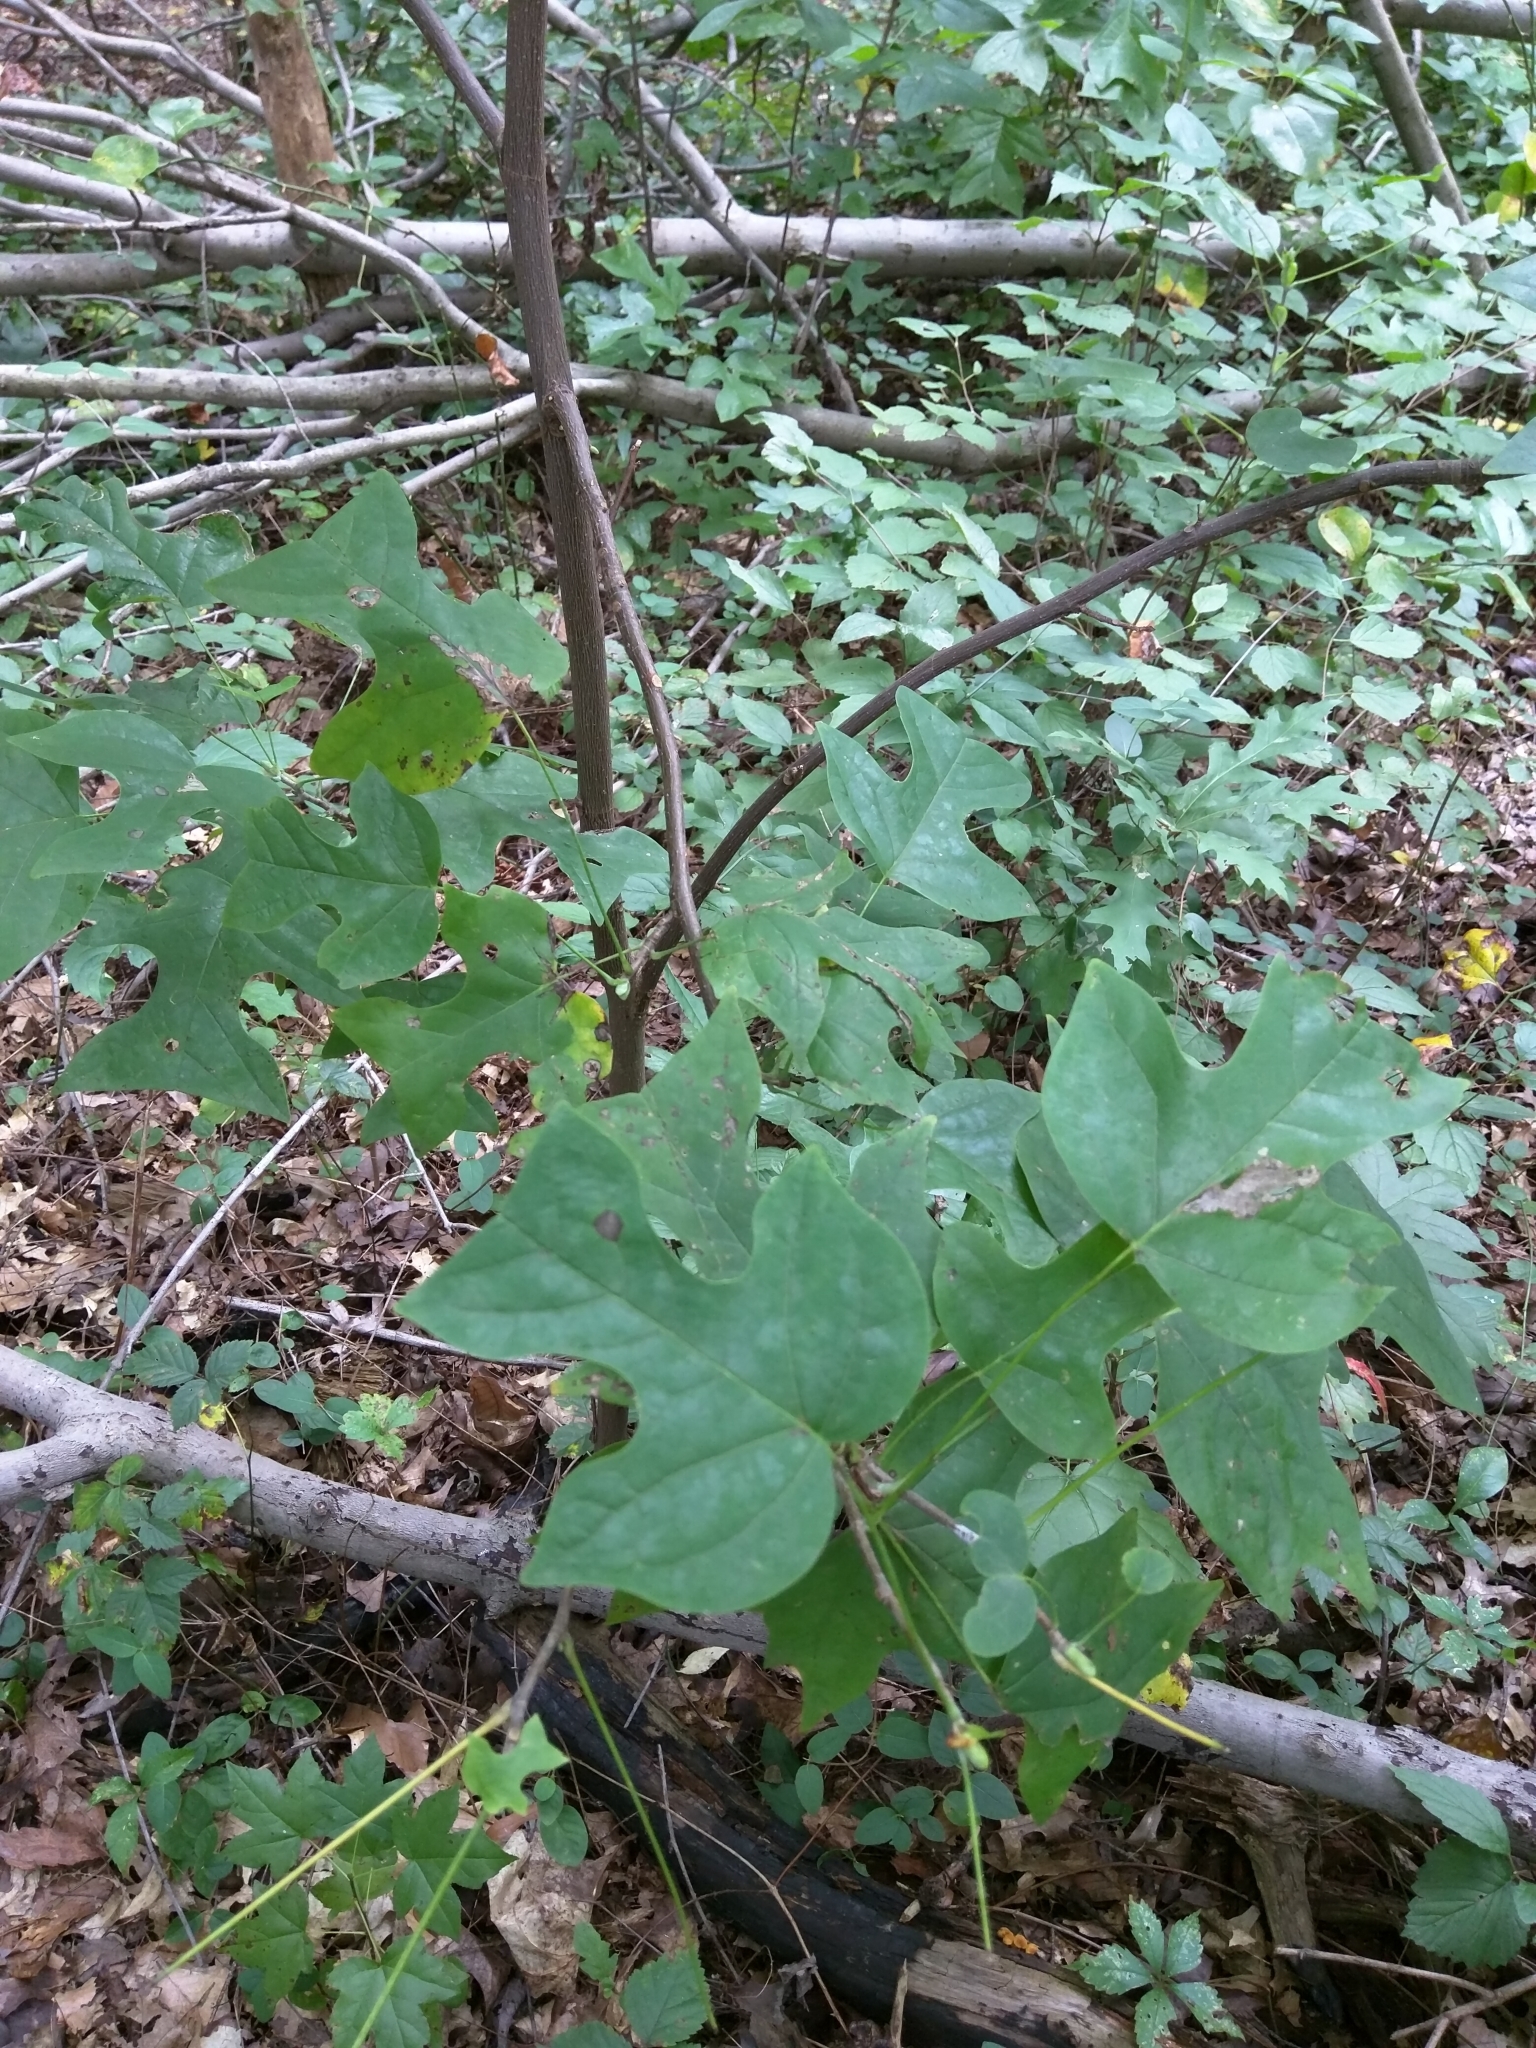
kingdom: Plantae
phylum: Tracheophyta
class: Magnoliopsida
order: Magnoliales
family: Magnoliaceae
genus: Liriodendron
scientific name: Liriodendron tulipifera
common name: Tulip tree
